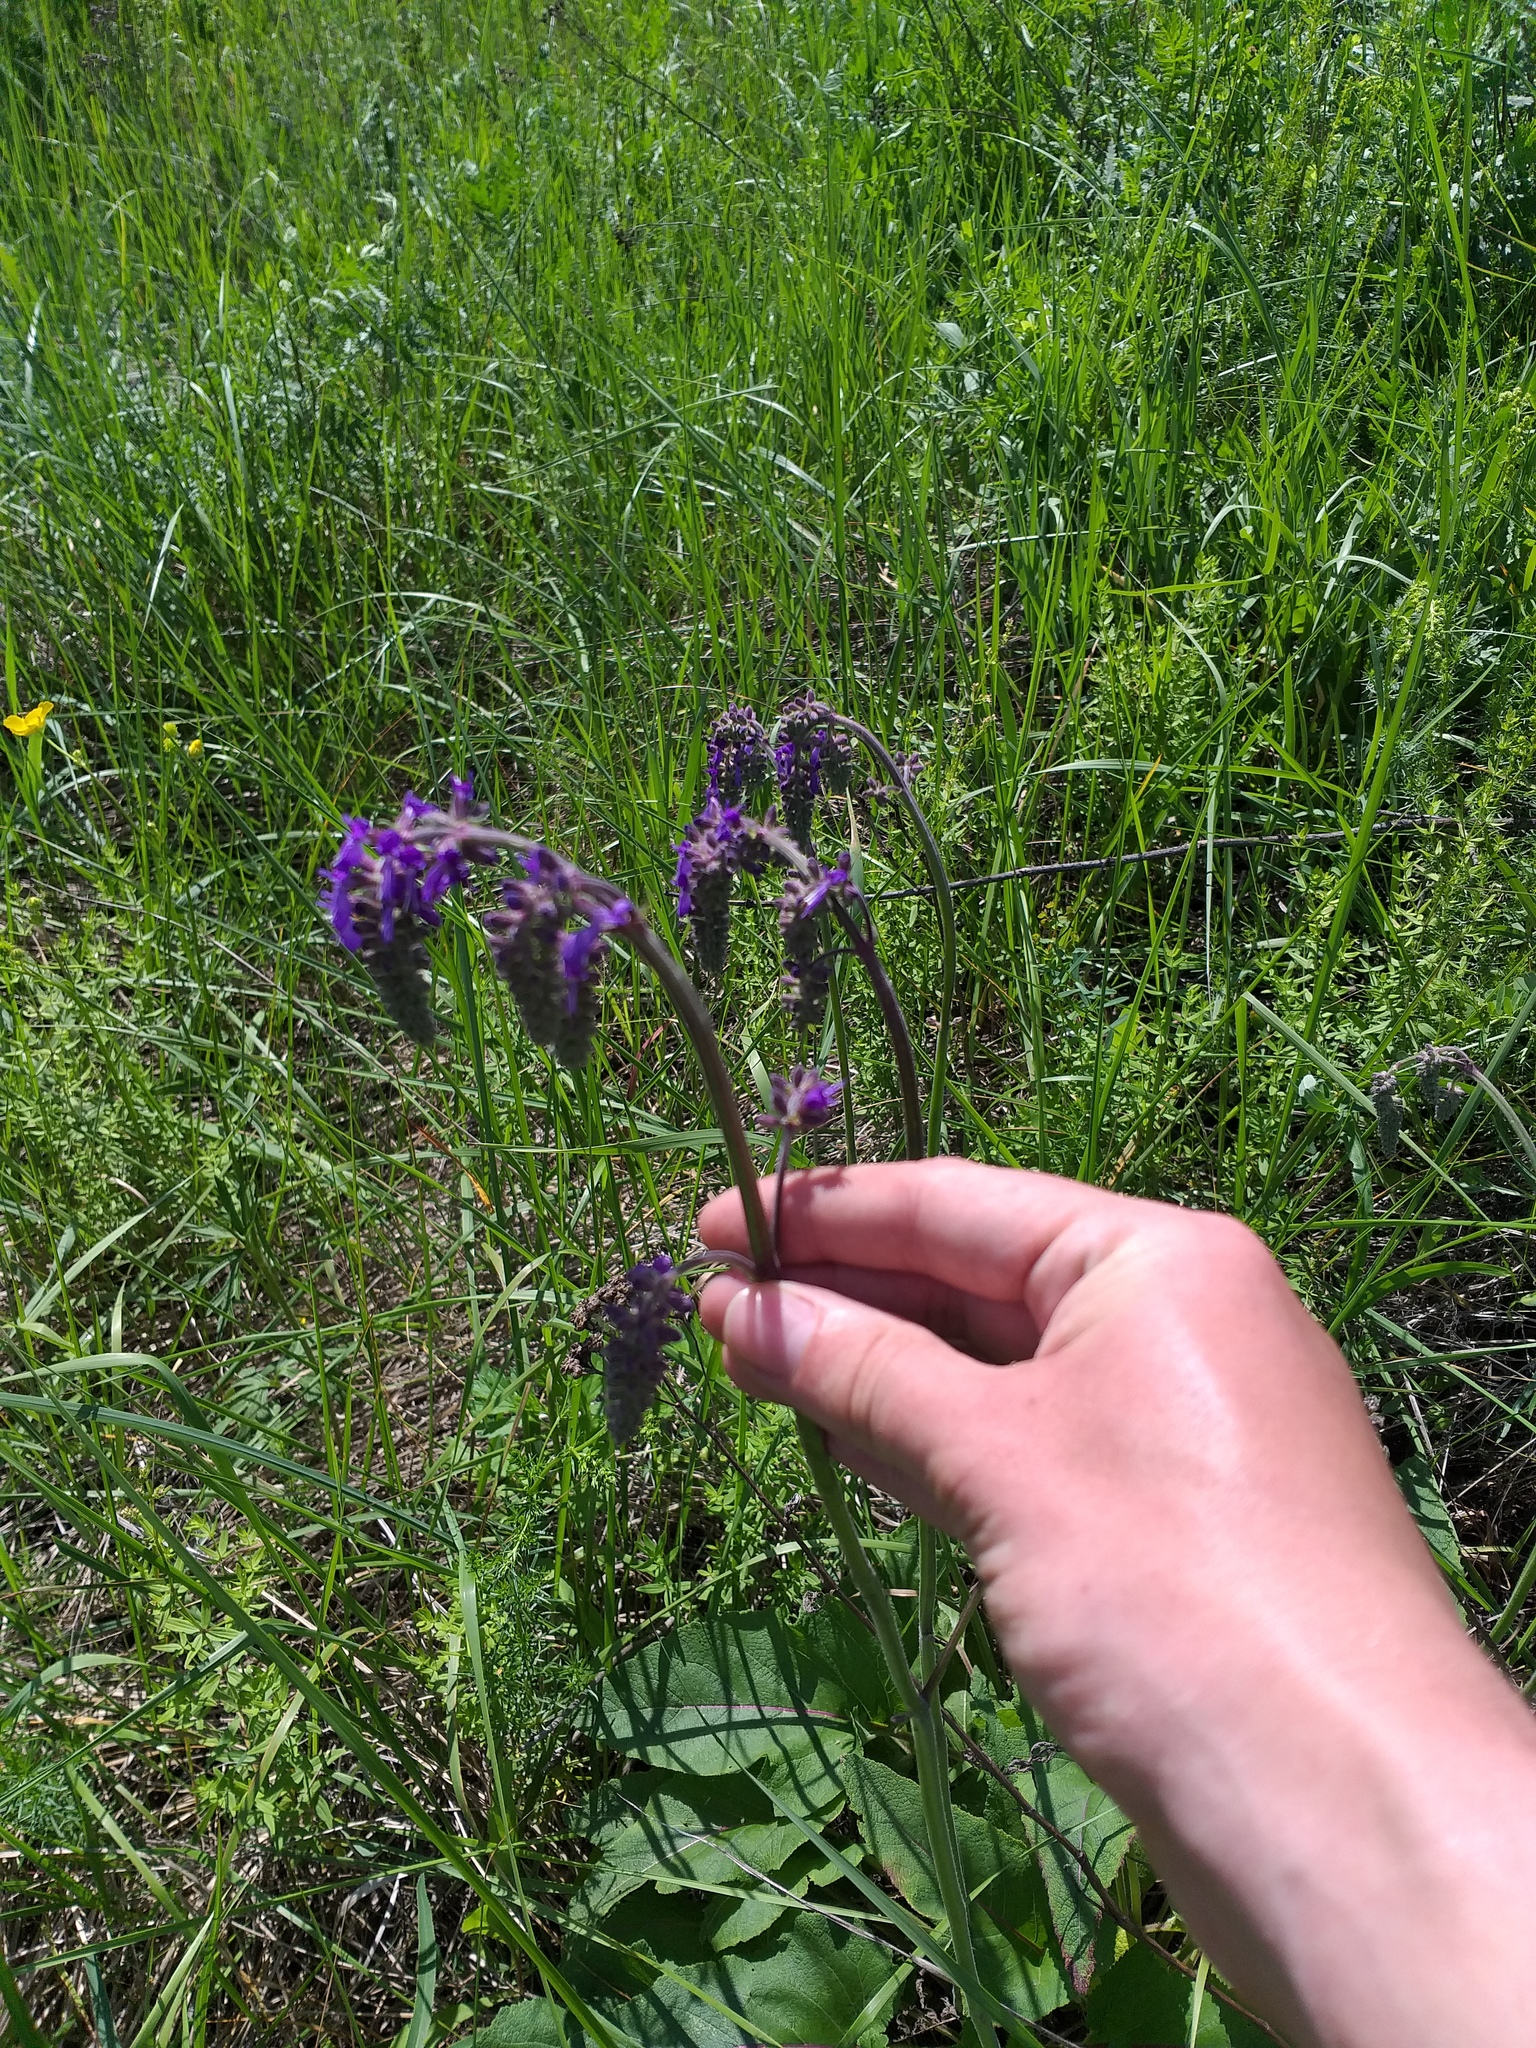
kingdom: Plantae
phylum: Tracheophyta
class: Magnoliopsida
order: Lamiales
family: Lamiaceae
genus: Salvia
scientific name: Salvia nutans
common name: Nodding sage
